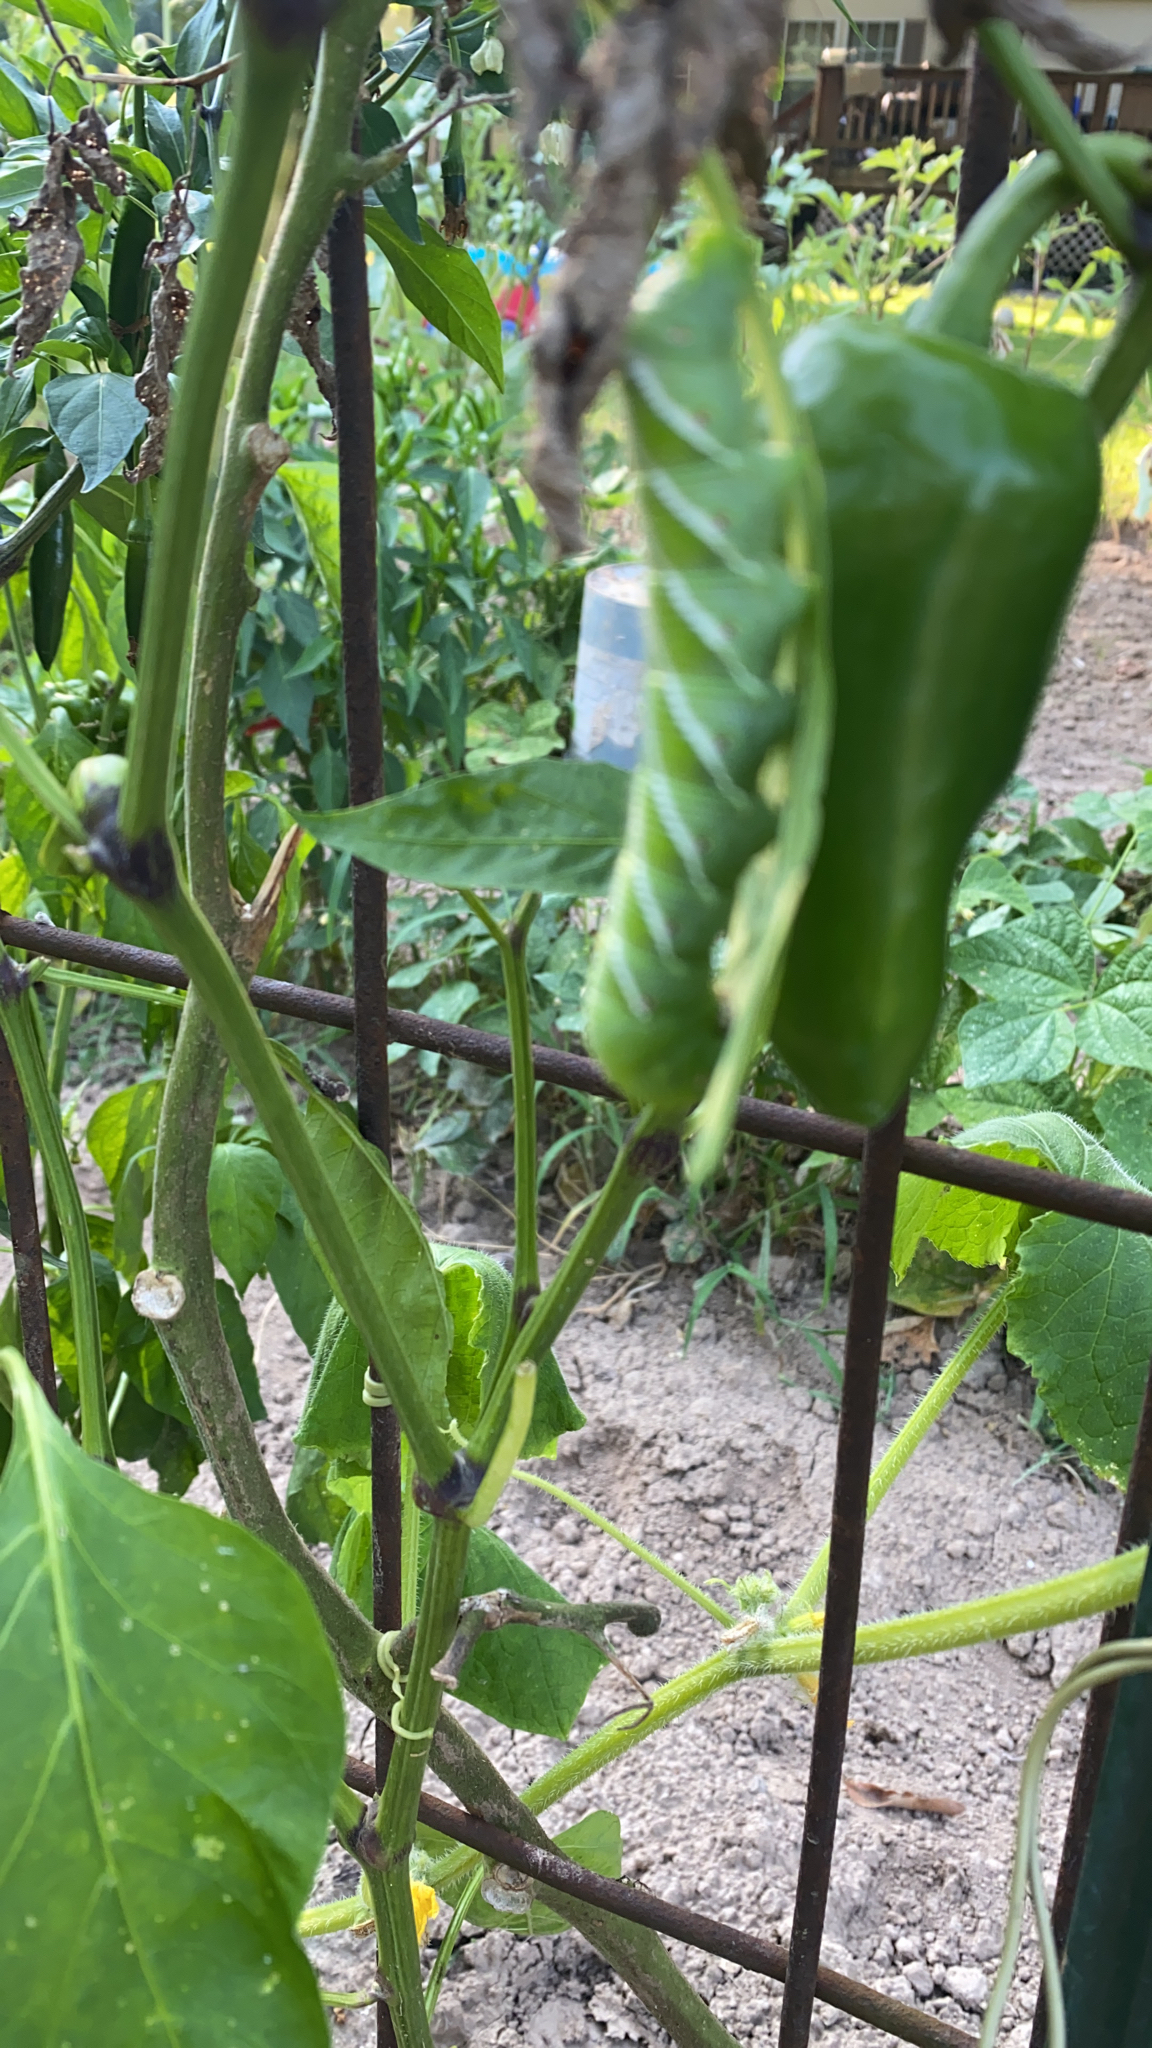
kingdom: Animalia
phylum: Arthropoda
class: Insecta
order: Lepidoptera
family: Sphingidae
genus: Manduca
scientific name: Manduca sexta
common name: Carolina sphinx
